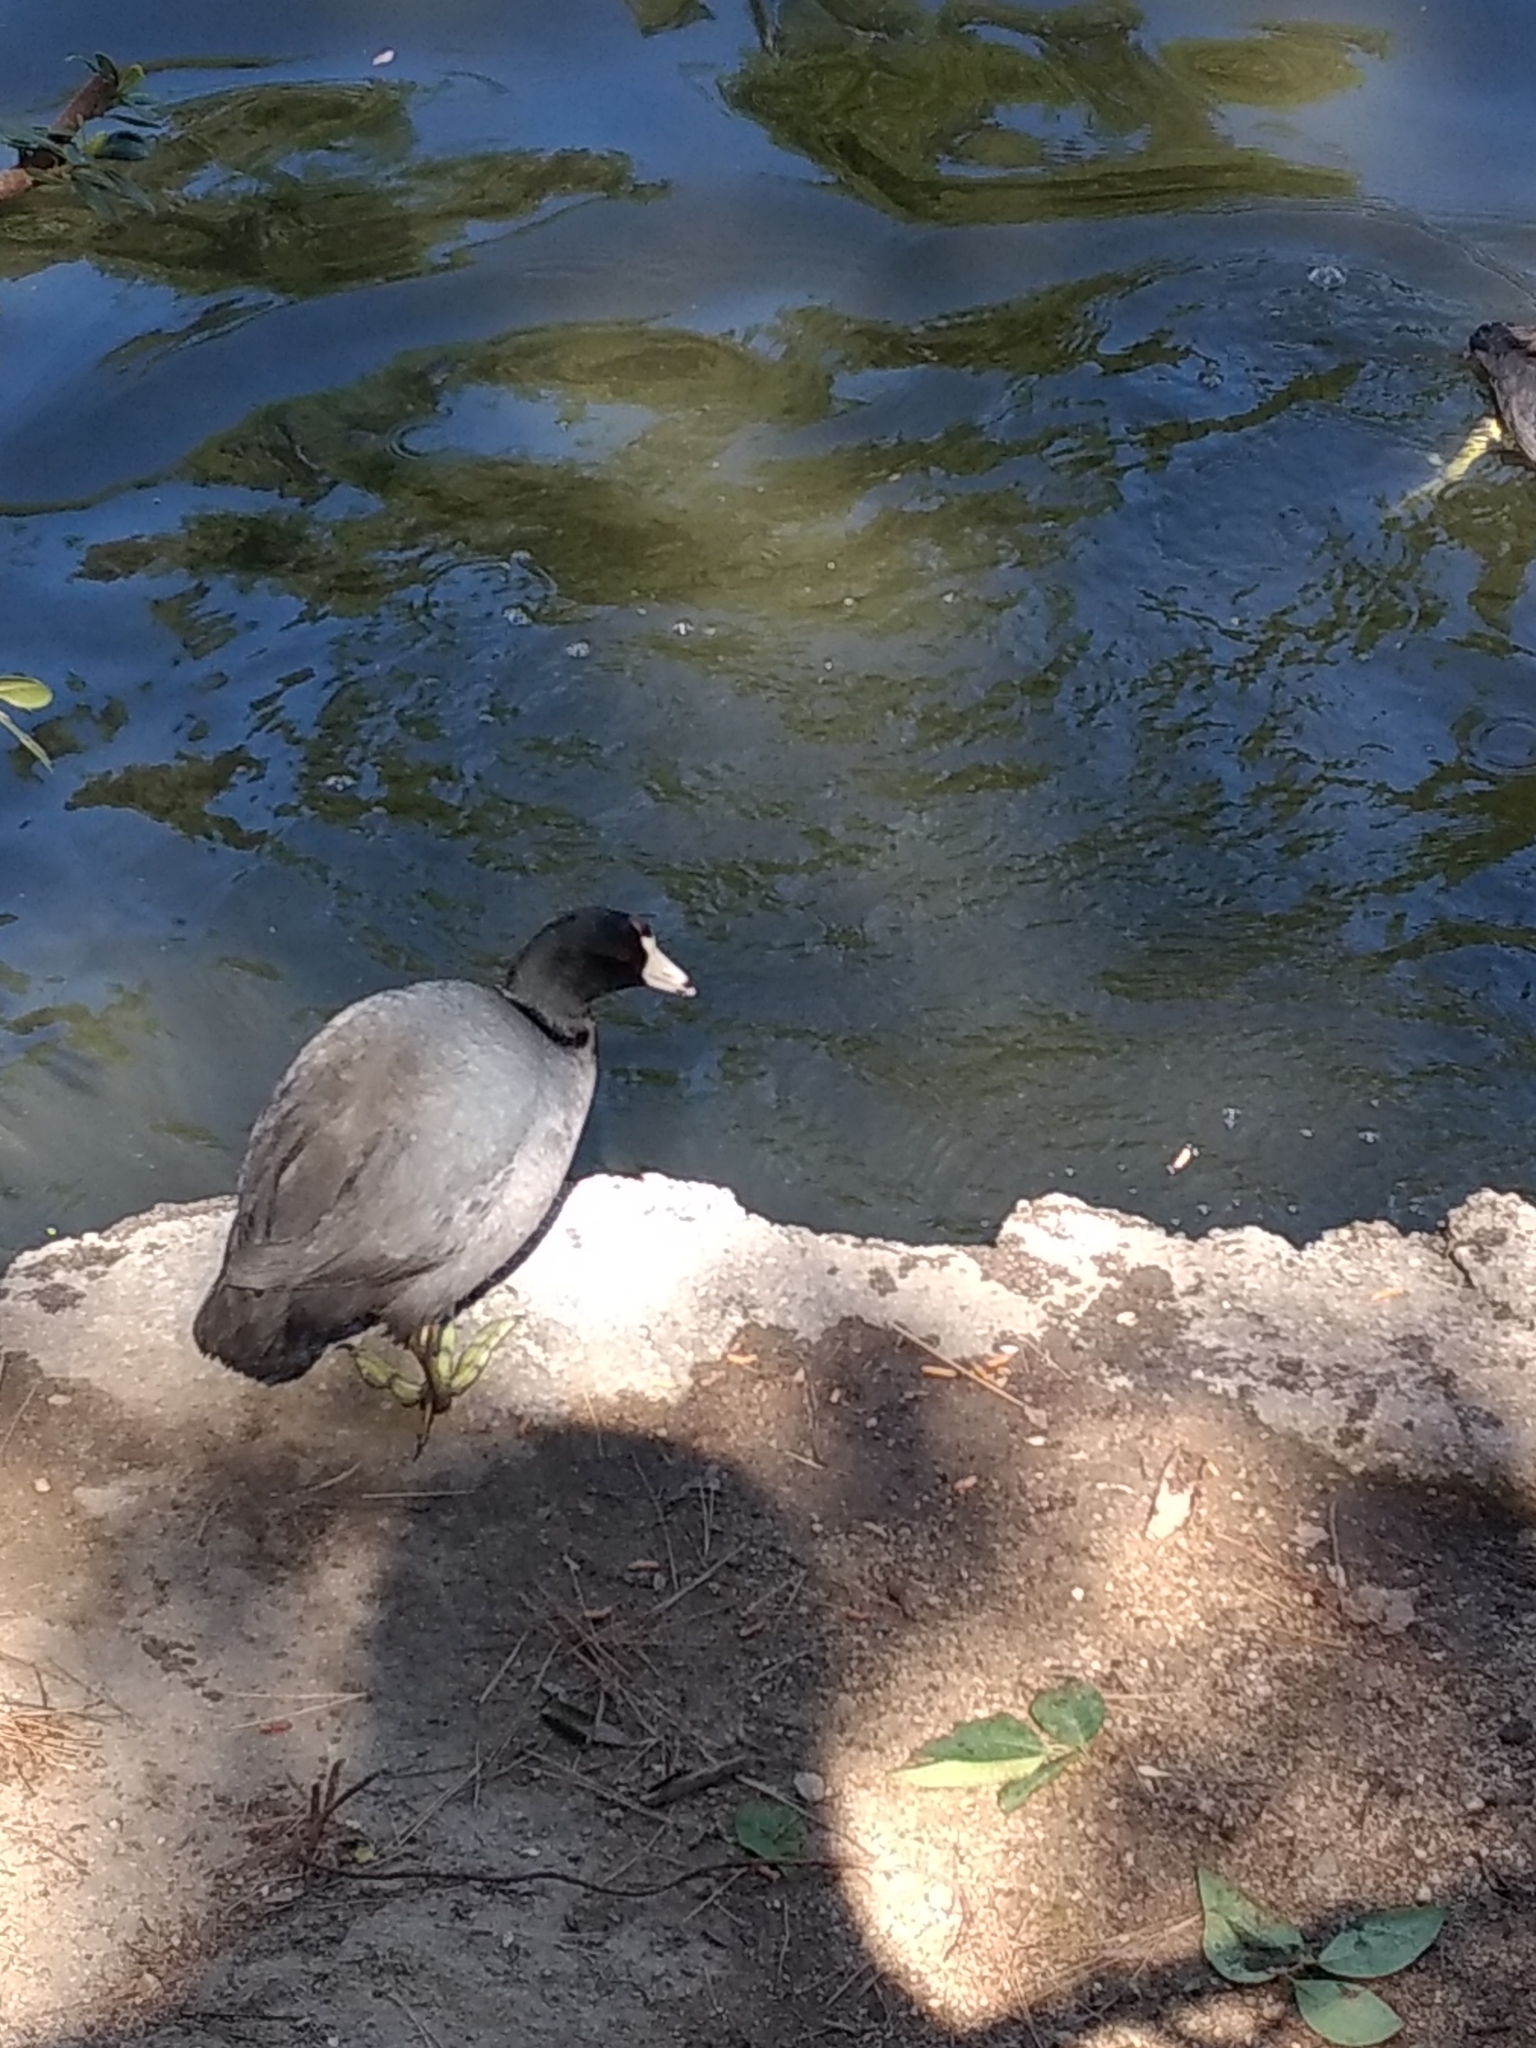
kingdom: Animalia
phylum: Chordata
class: Aves
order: Gruiformes
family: Rallidae
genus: Fulica
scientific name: Fulica americana
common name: American coot
